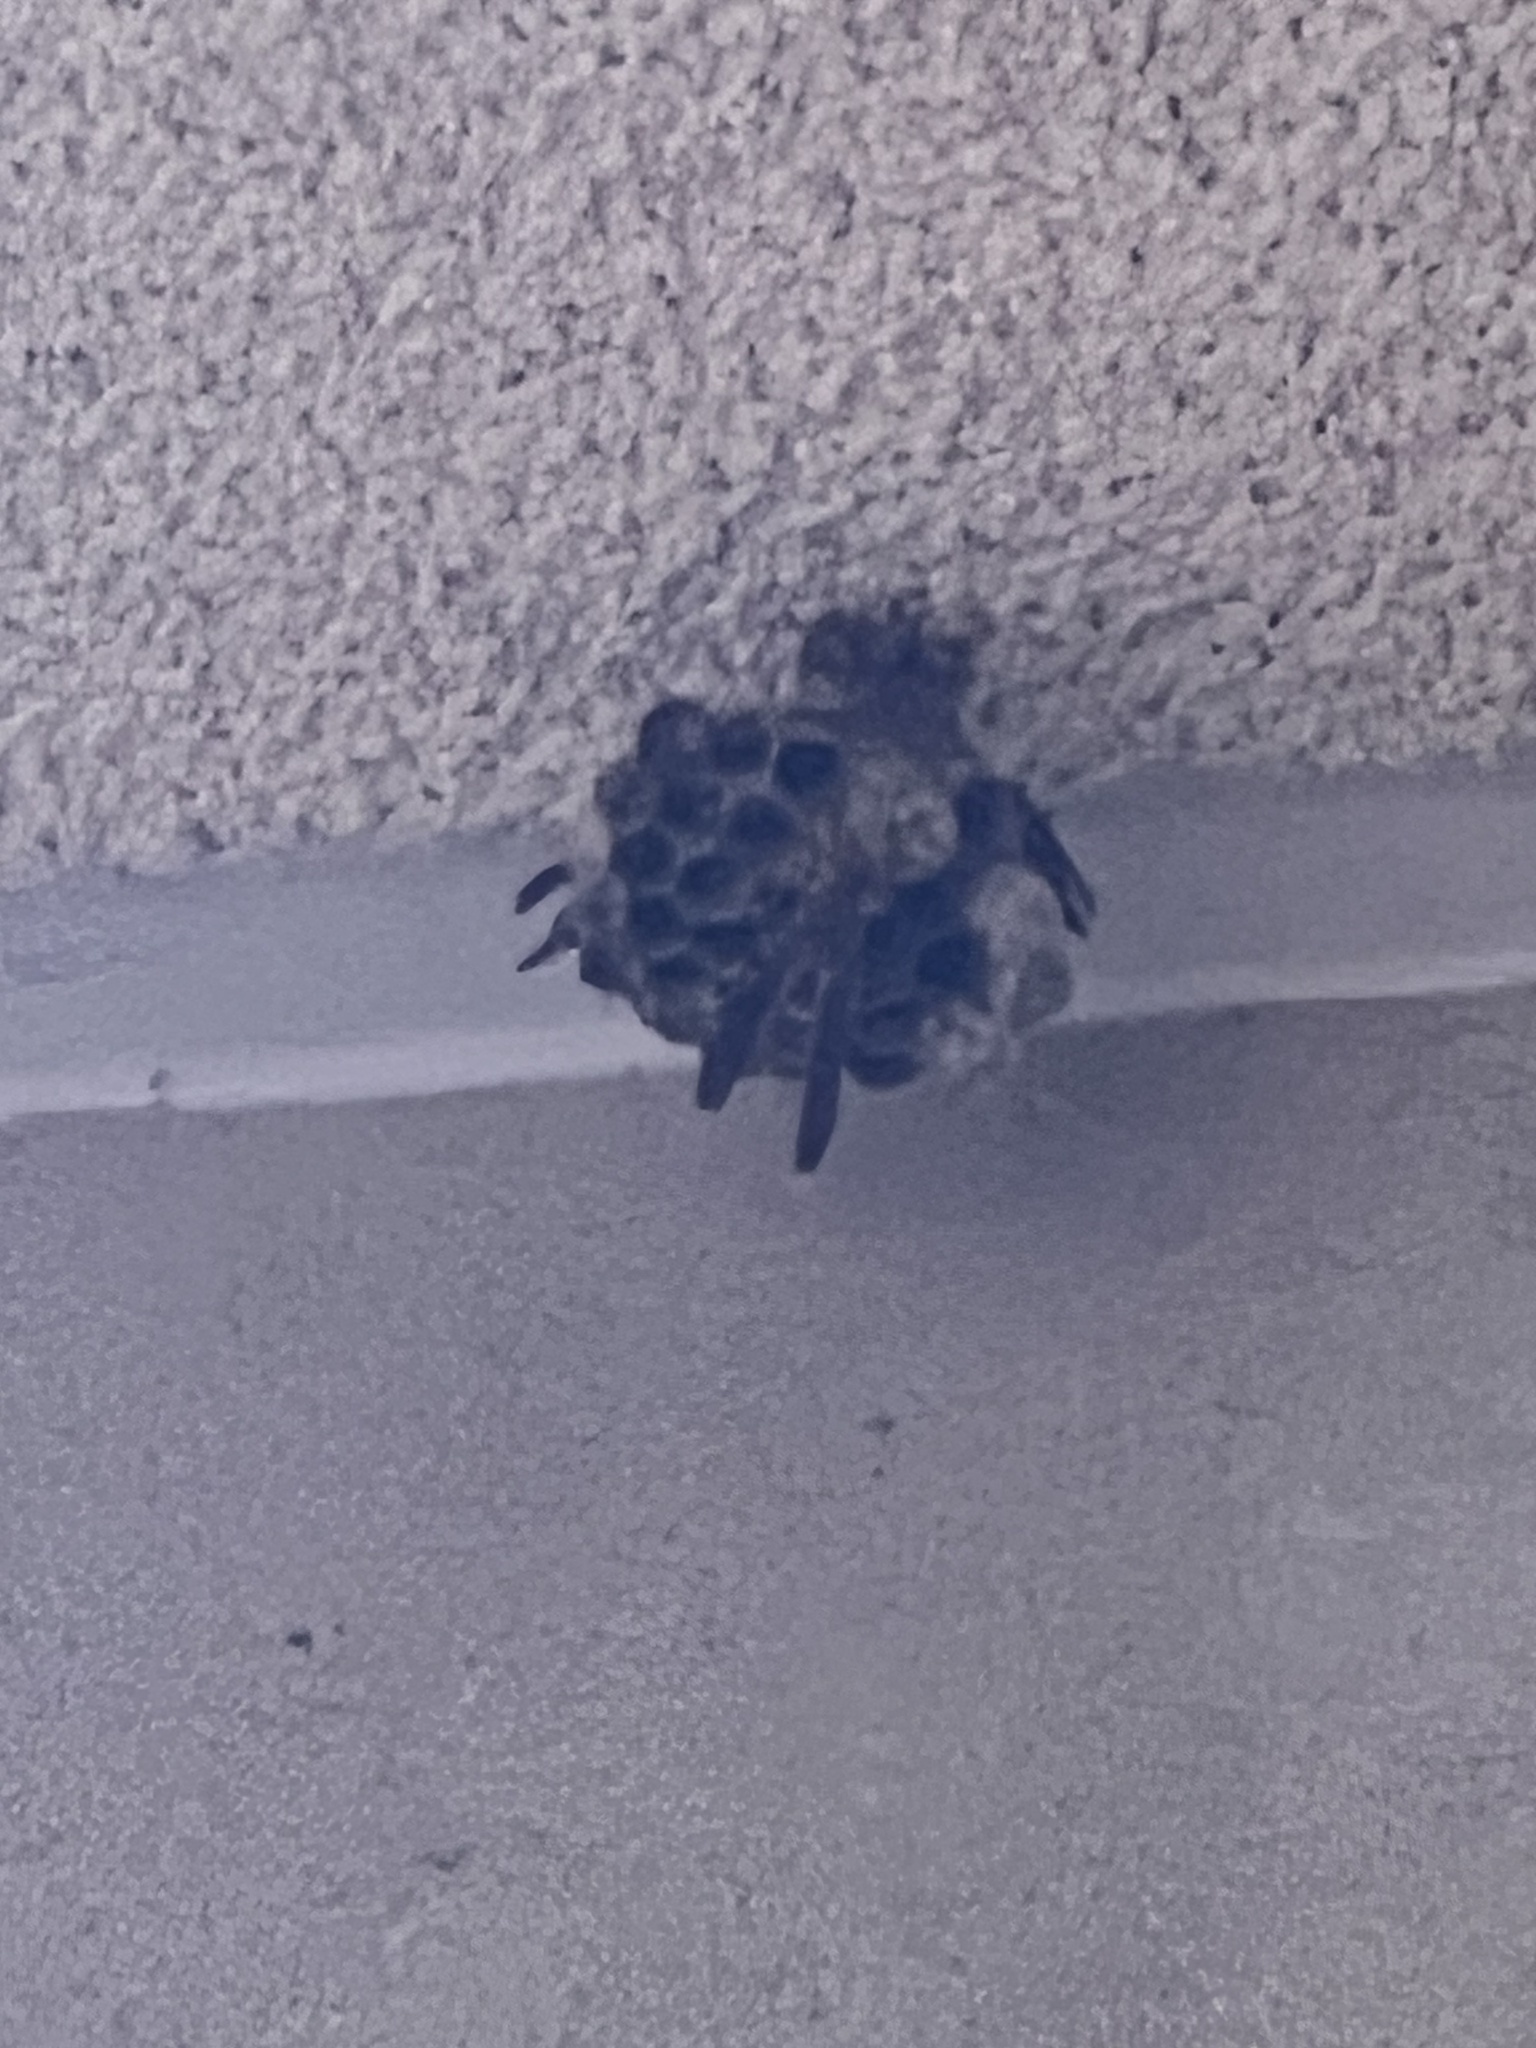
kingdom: Animalia
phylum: Arthropoda
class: Insecta
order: Hymenoptera
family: Eumenidae
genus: Polistes
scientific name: Polistes
